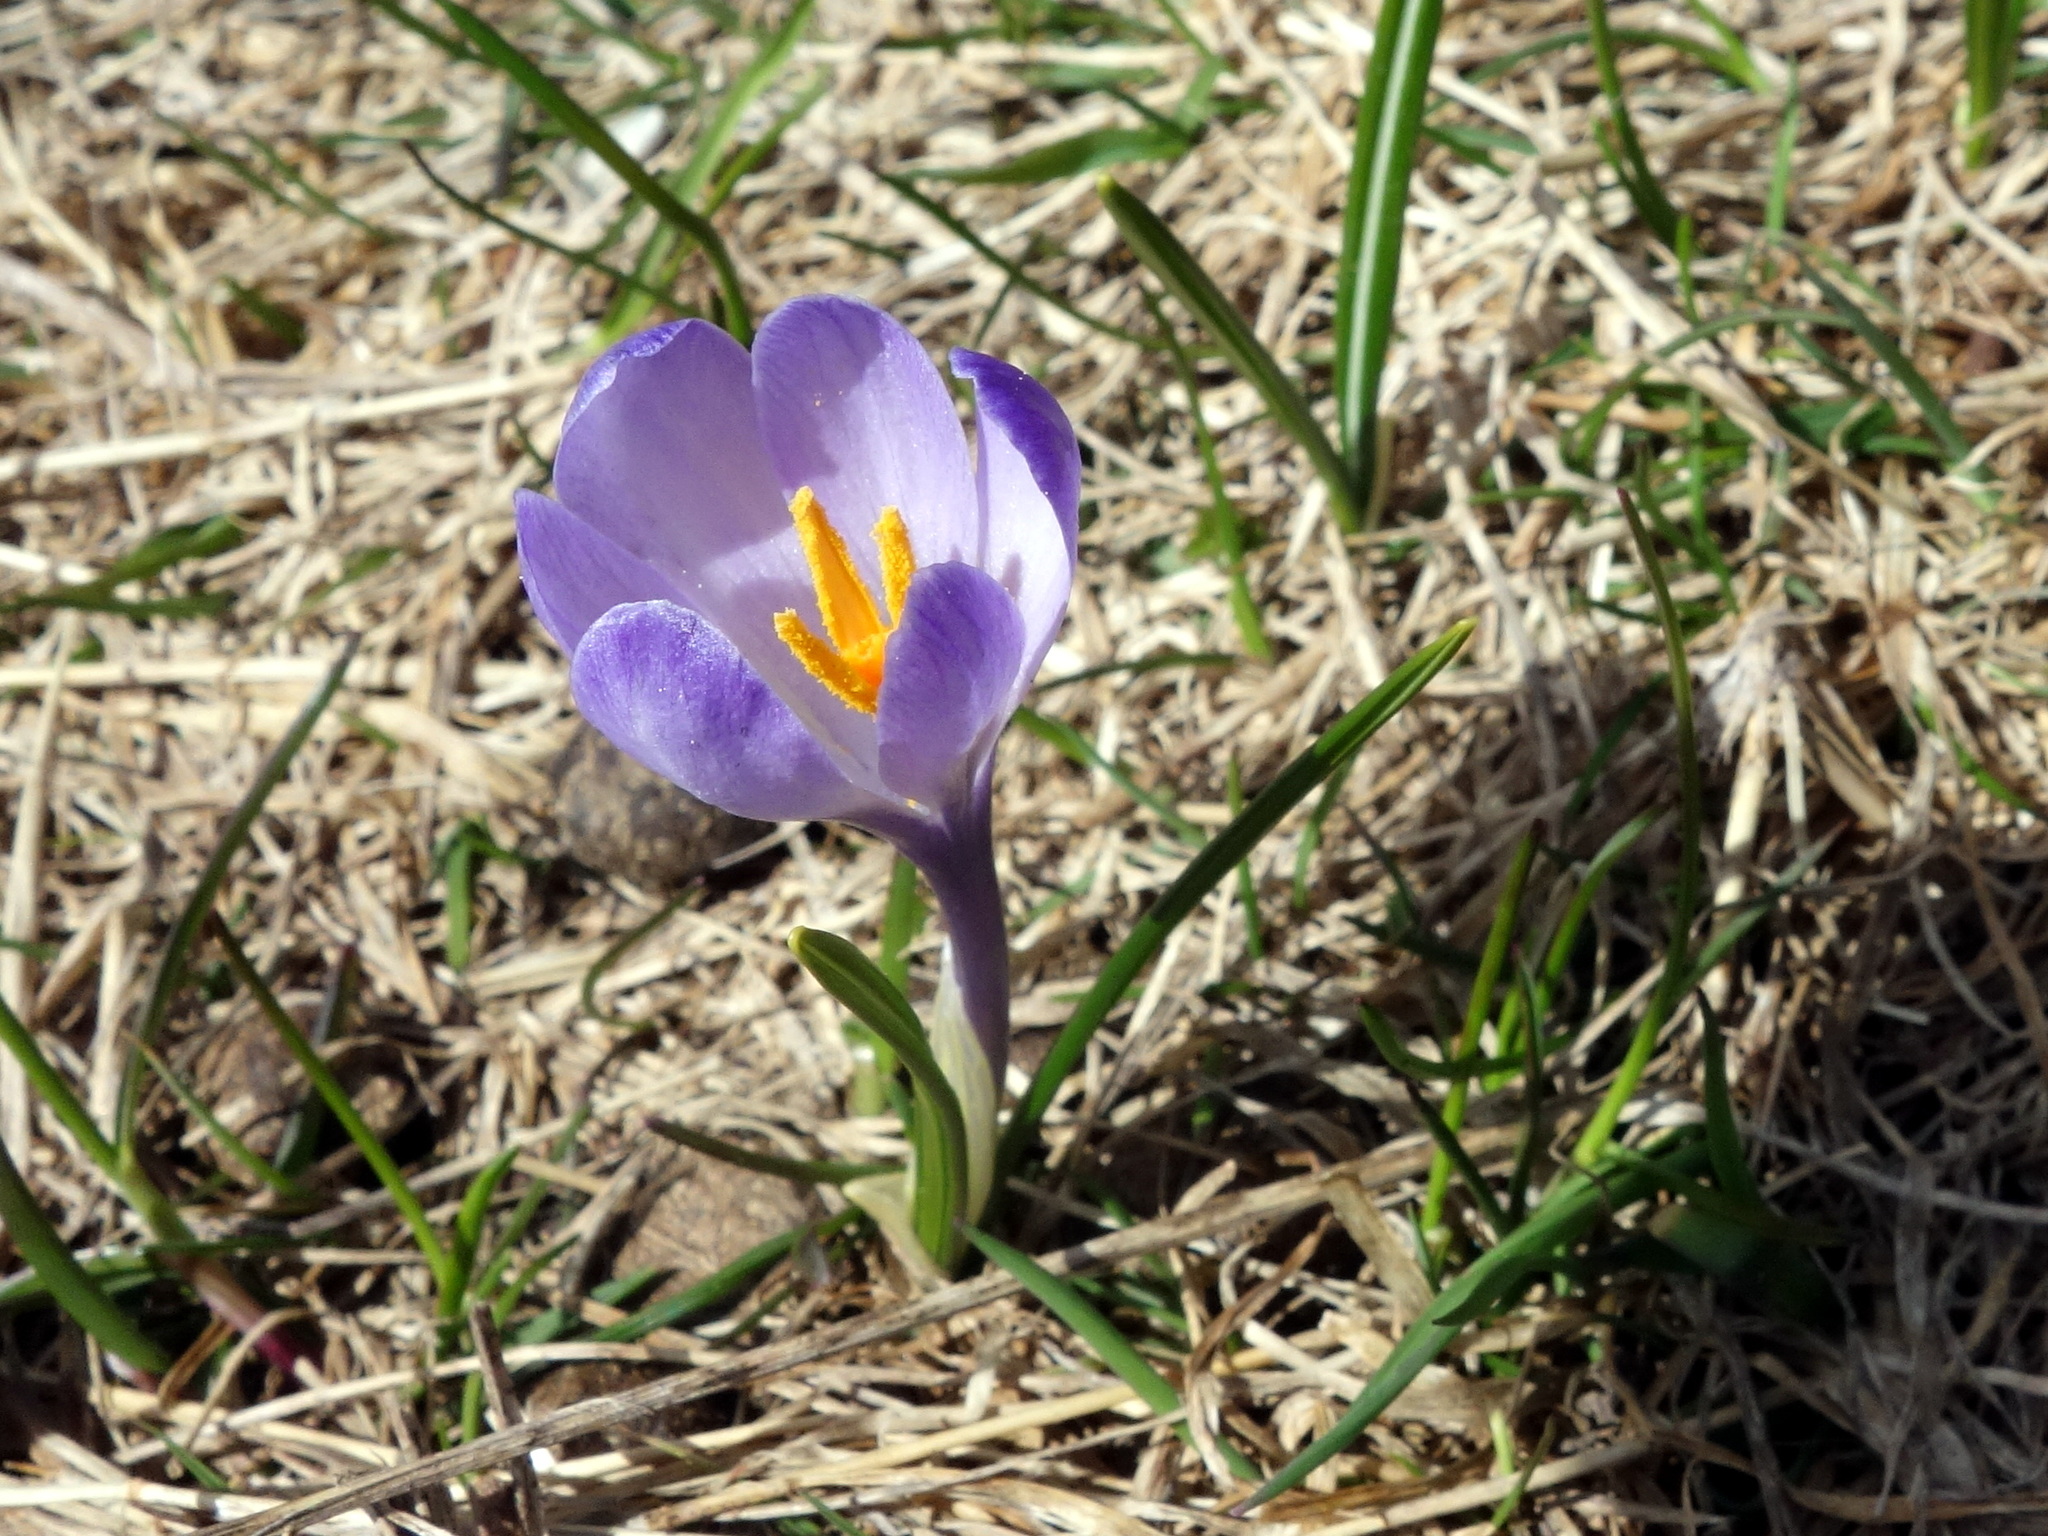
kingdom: Plantae
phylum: Tracheophyta
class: Liliopsida
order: Asparagales
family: Iridaceae
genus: Crocus
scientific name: Crocus vernus
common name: Spring crocus
